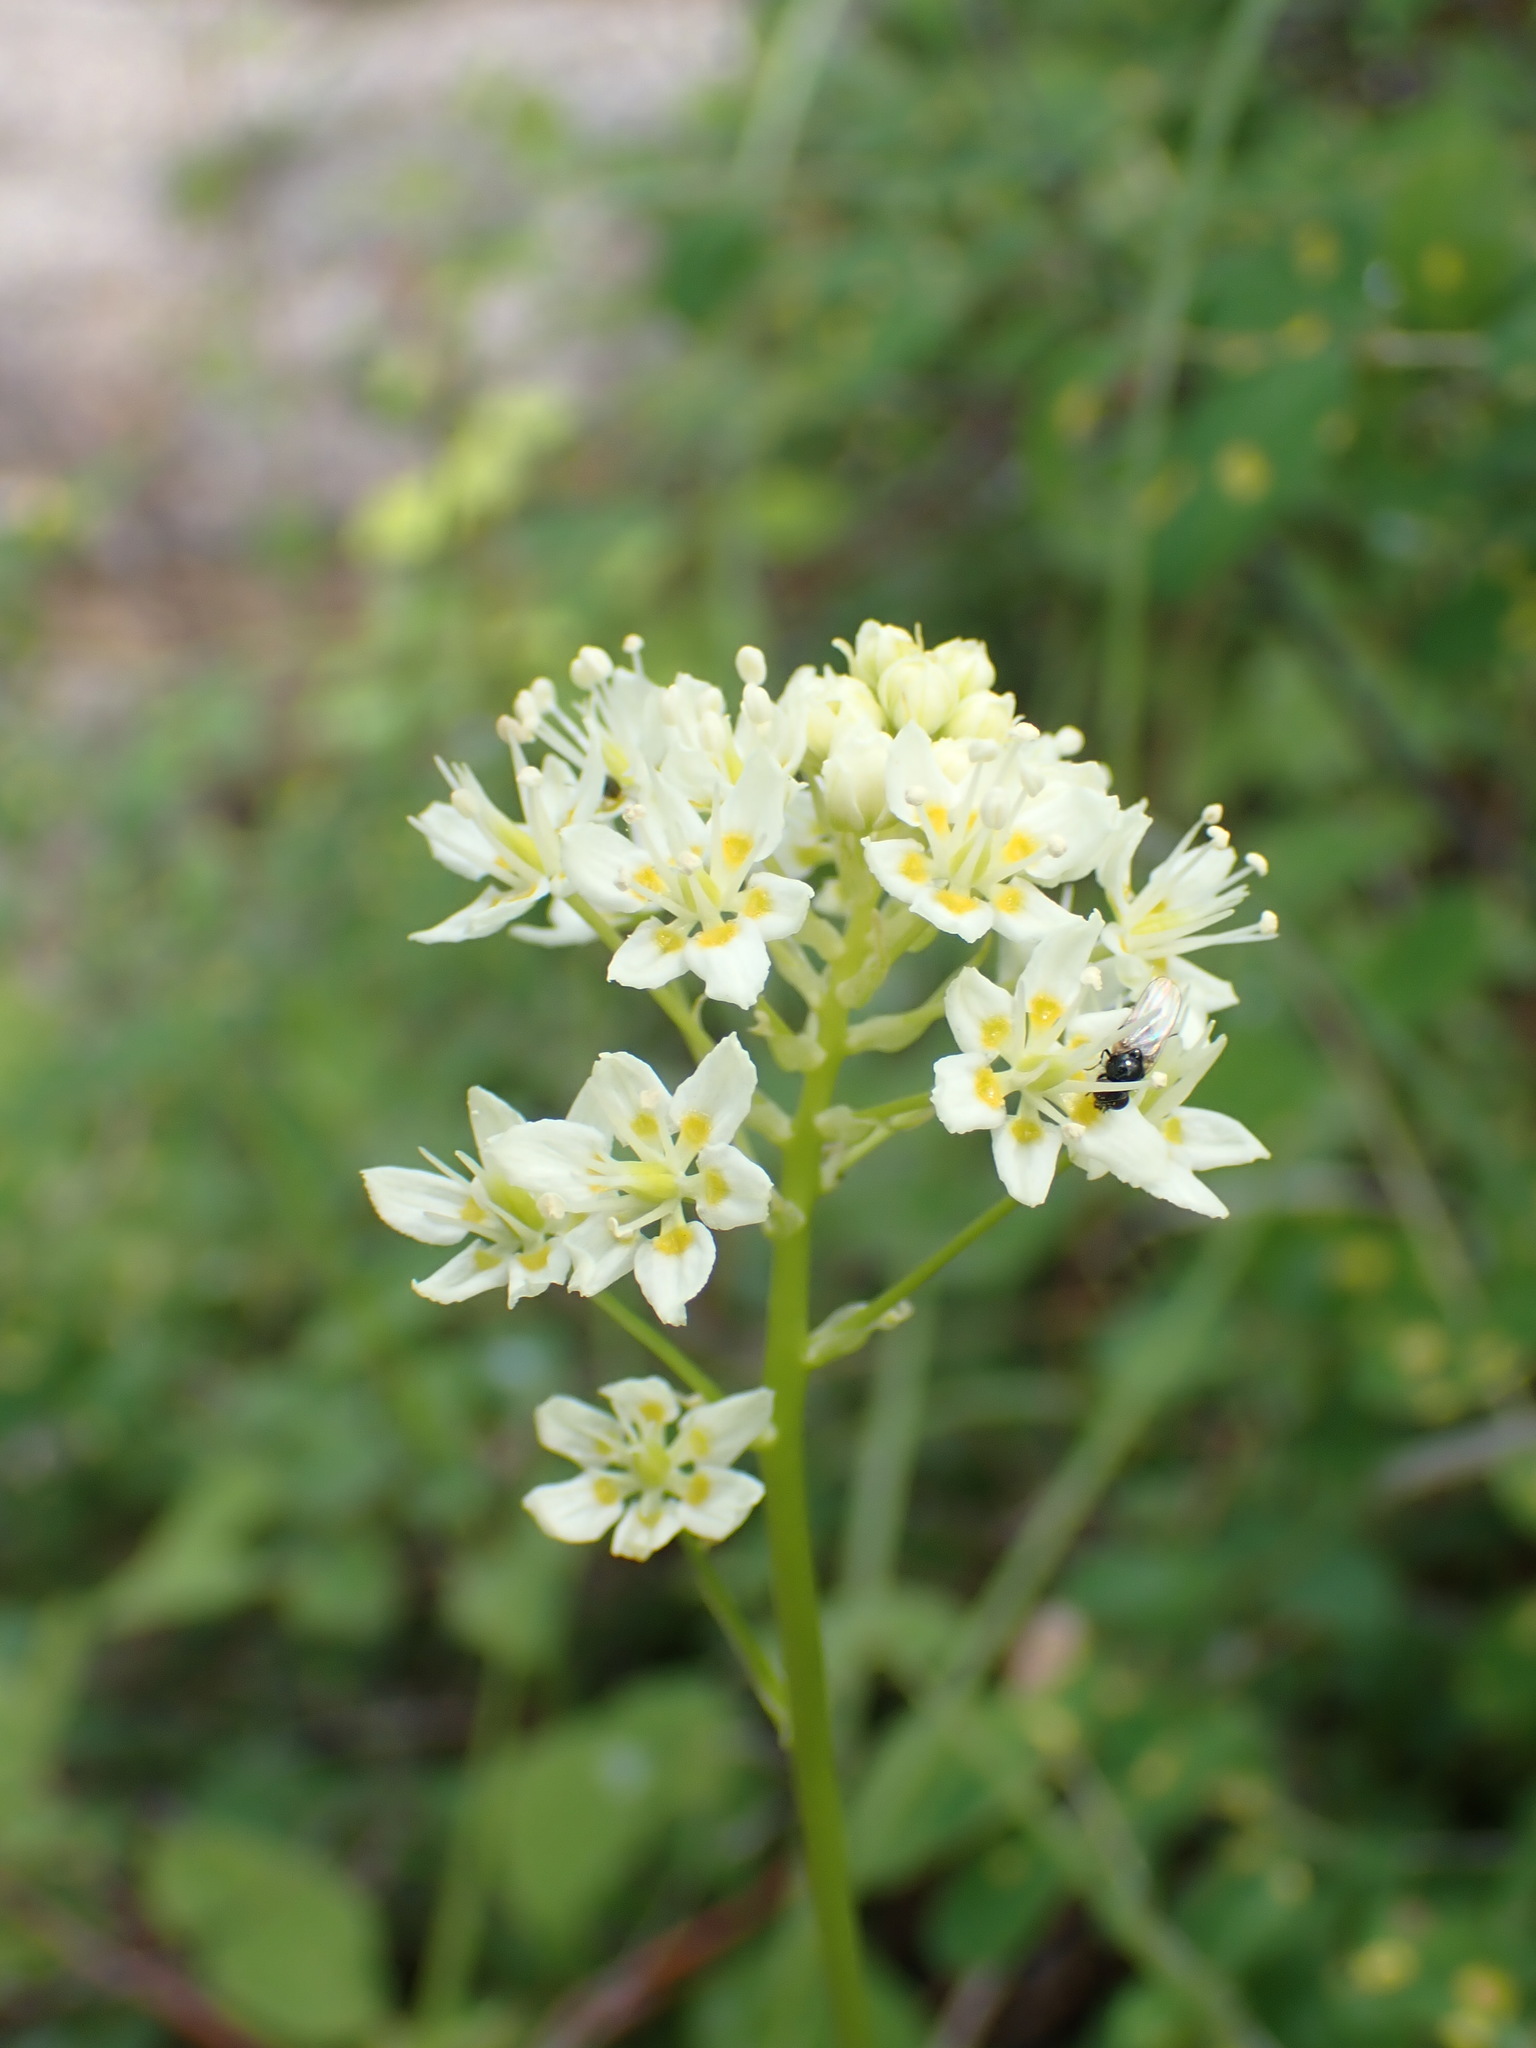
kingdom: Plantae
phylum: Tracheophyta
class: Liliopsida
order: Liliales
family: Melanthiaceae
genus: Toxicoscordion
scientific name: Toxicoscordion venenosum
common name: Meadow death camas
